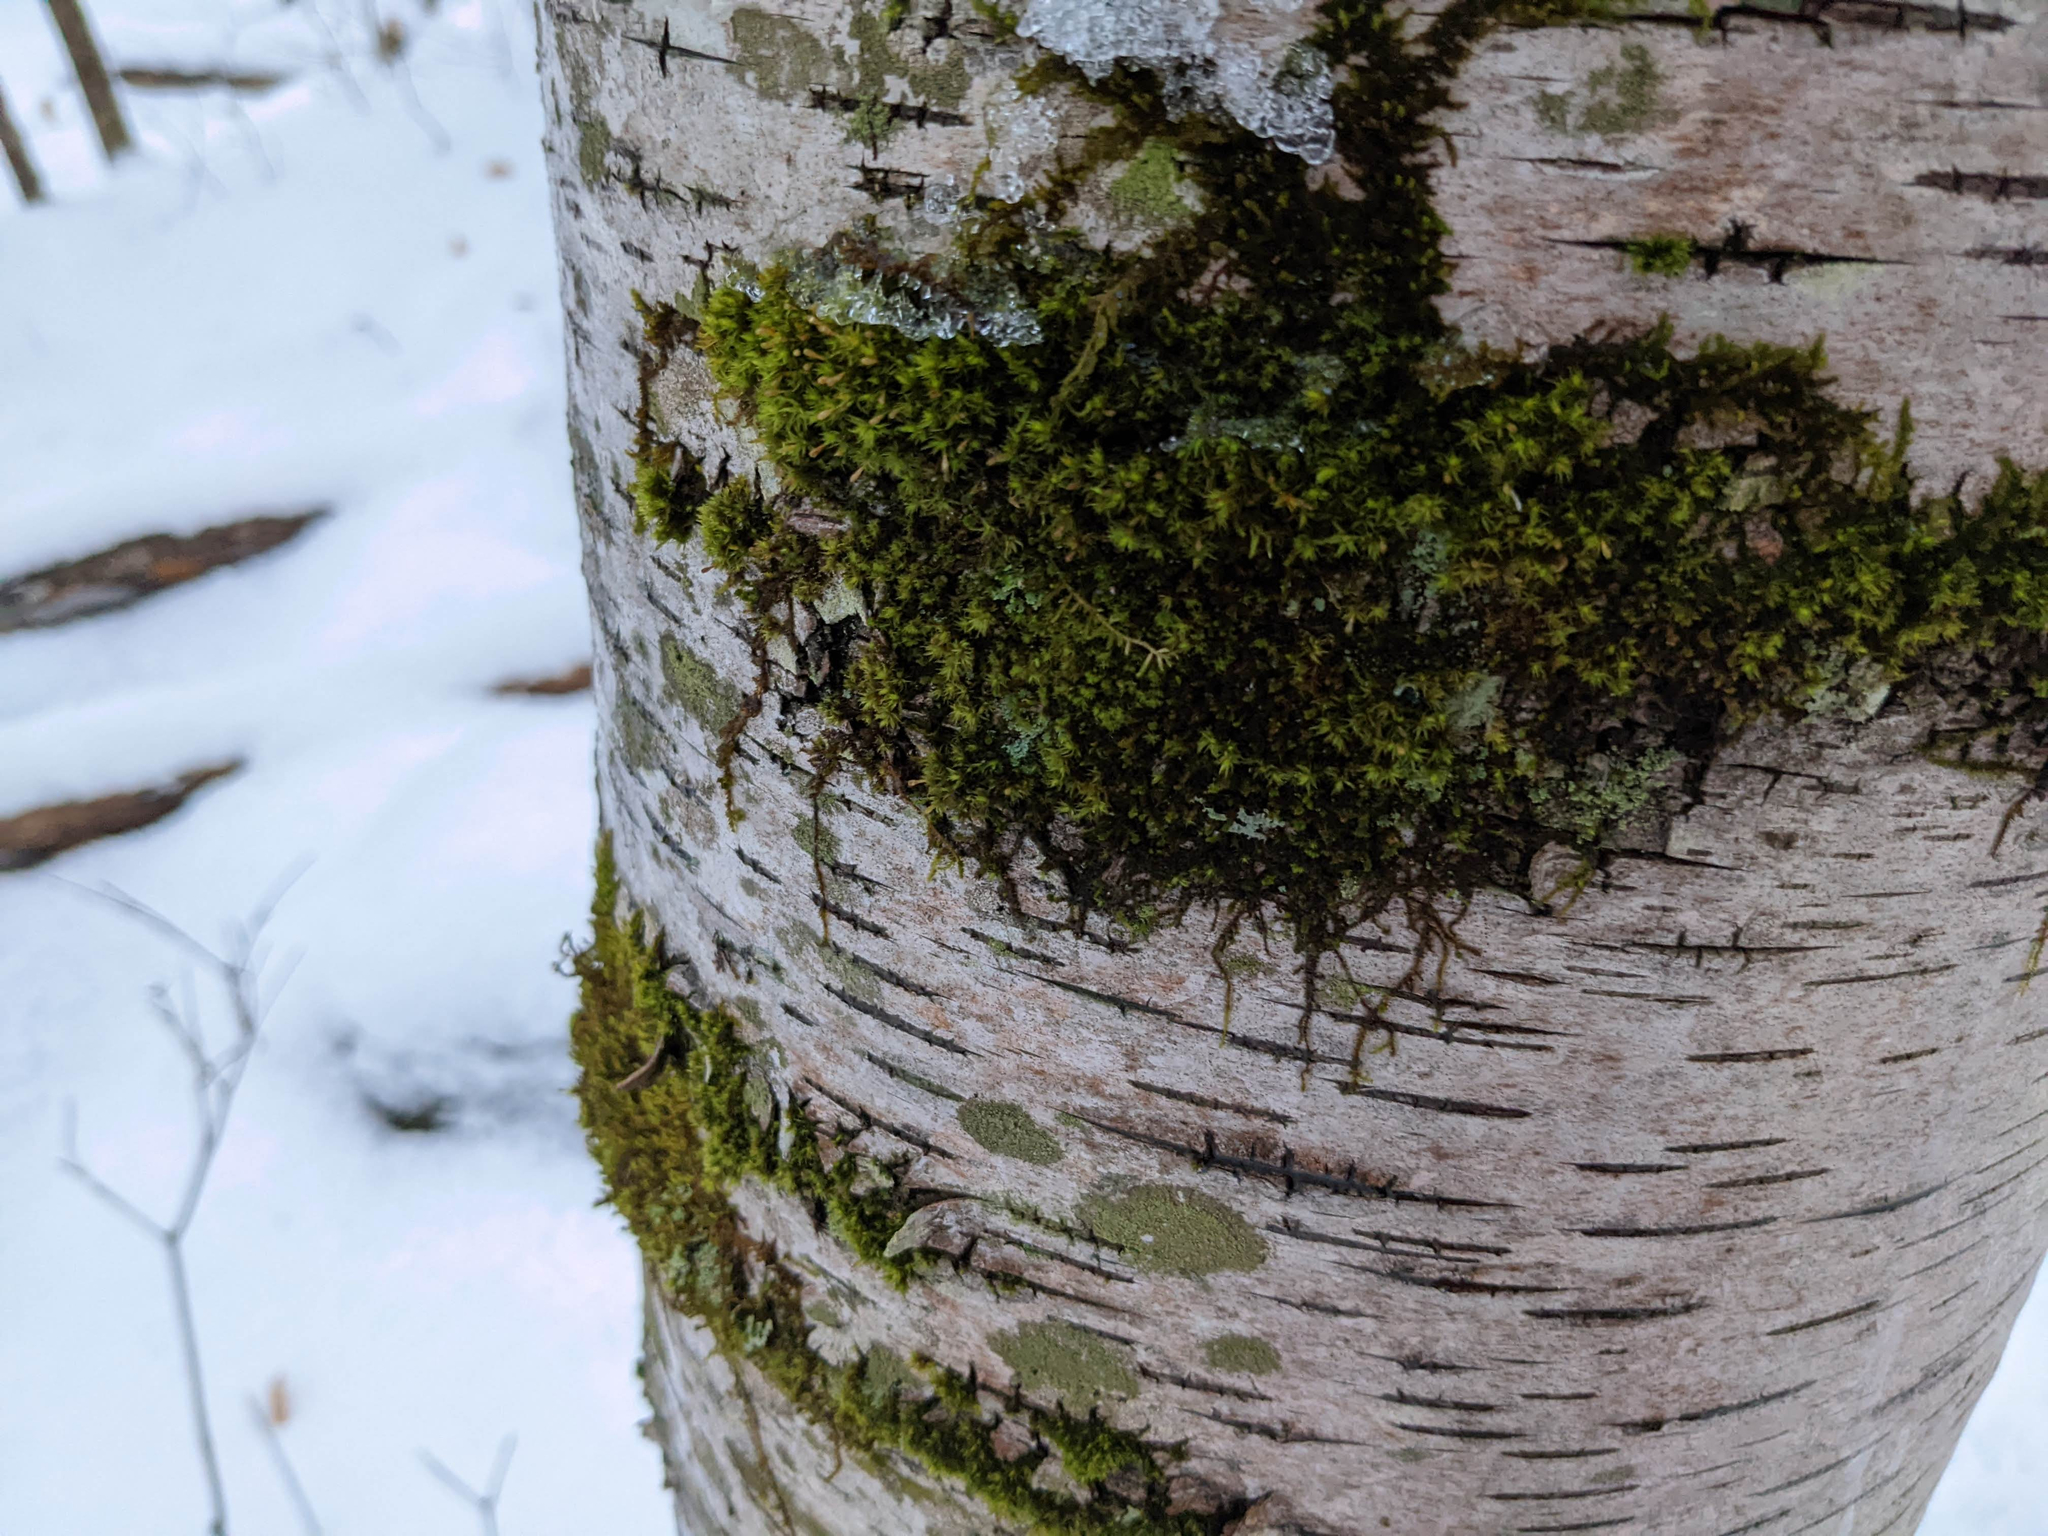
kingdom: Plantae
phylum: Bryophyta
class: Bryopsida
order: Orthotrichales
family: Orthotrichaceae
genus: Ulota
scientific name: Ulota crispa
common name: Crisped pincushion moss
